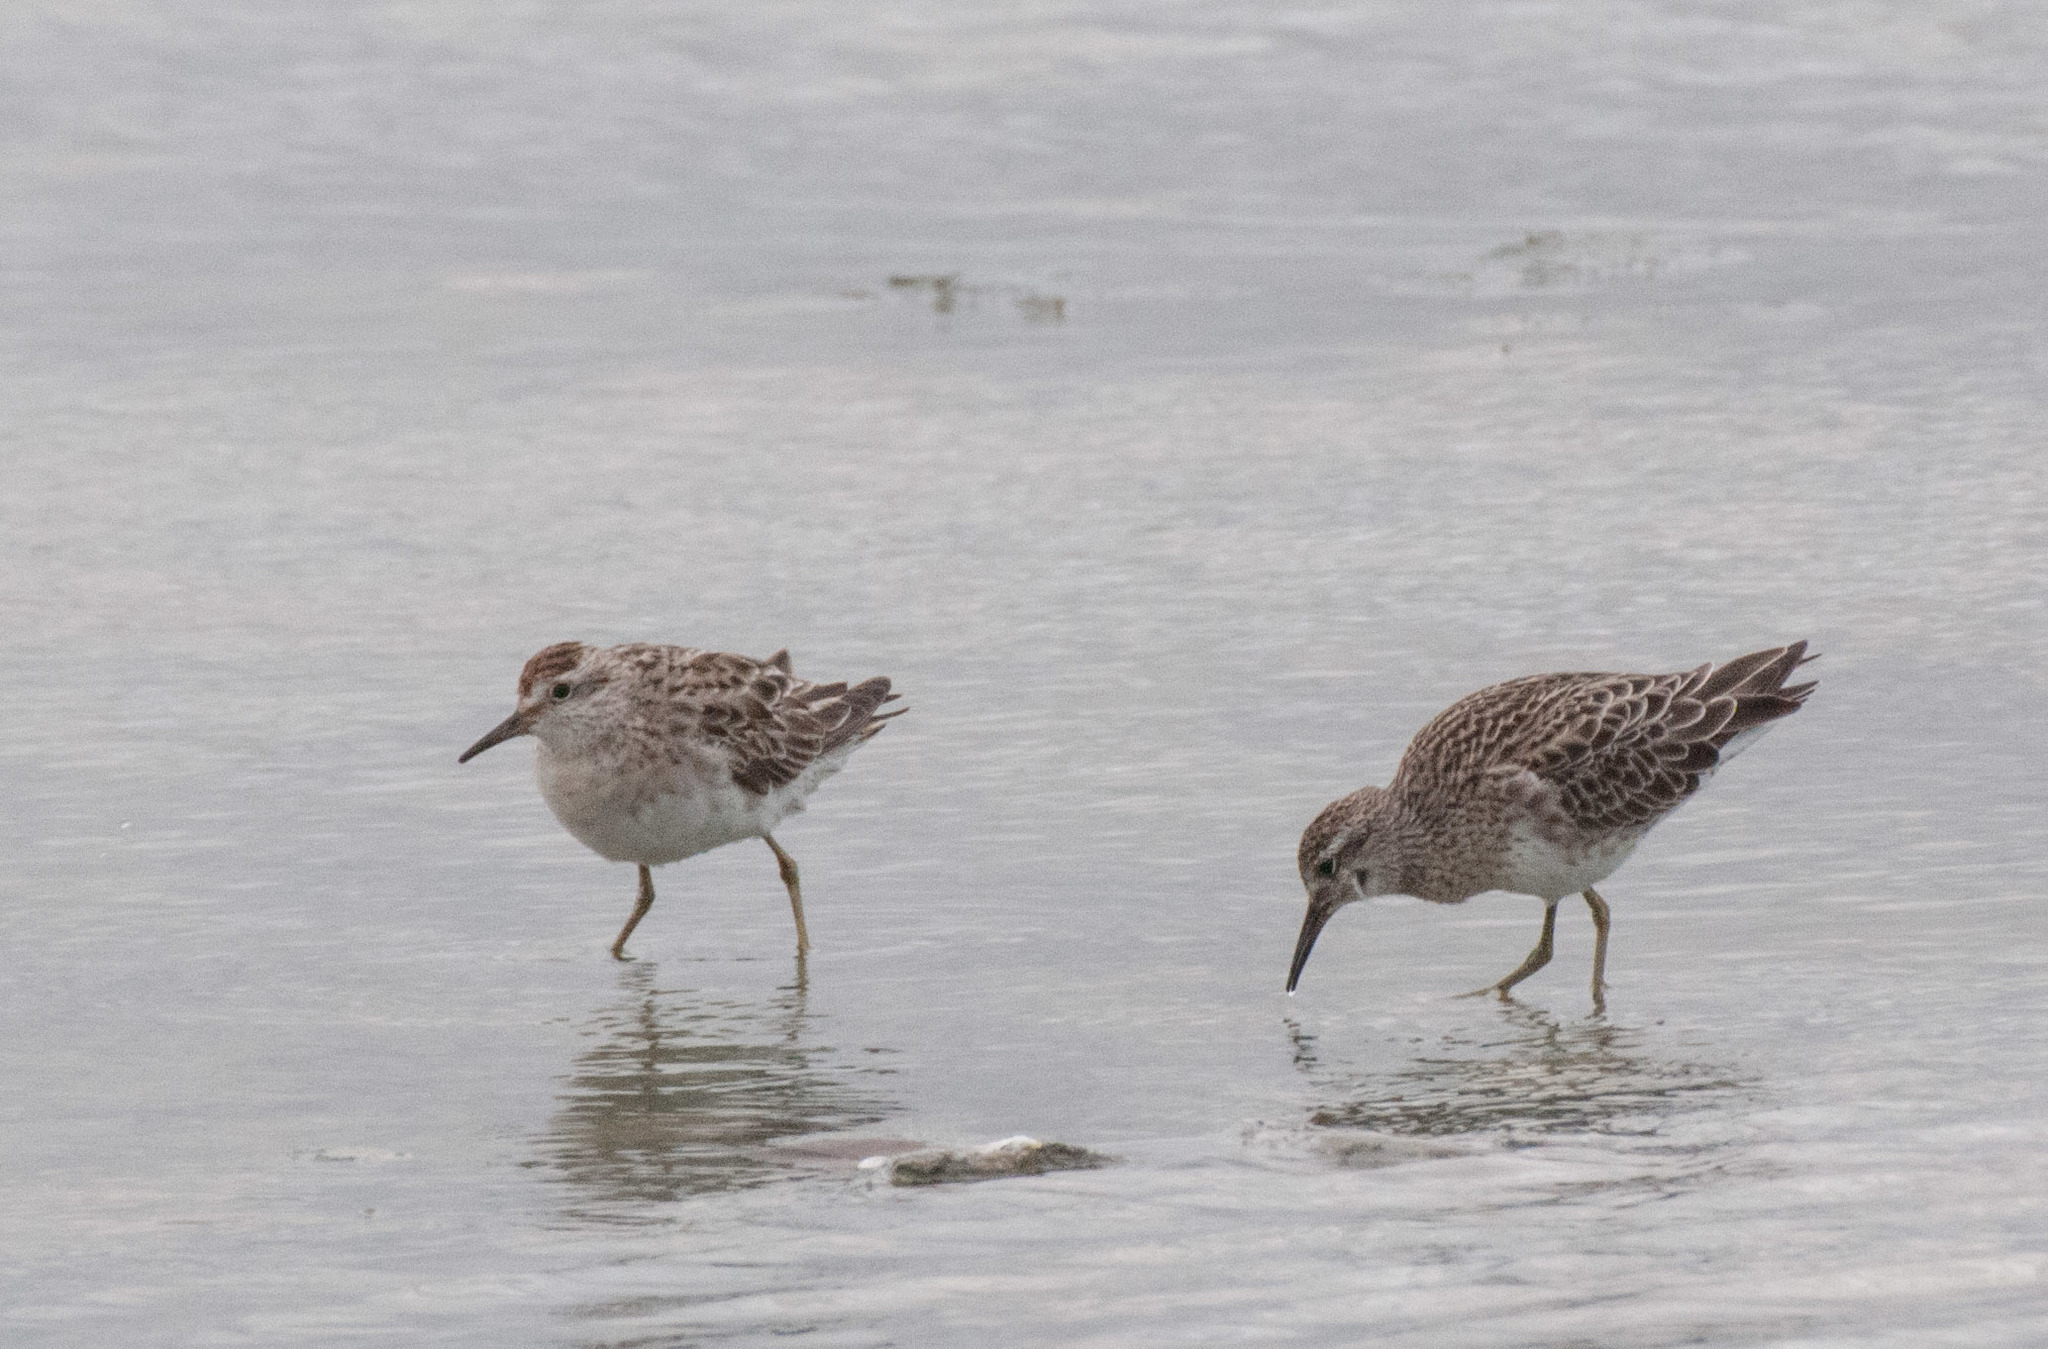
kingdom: Animalia
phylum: Chordata
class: Aves
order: Charadriiformes
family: Scolopacidae
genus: Calidris
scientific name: Calidris acuminata
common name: Sharp-tailed sandpiper
